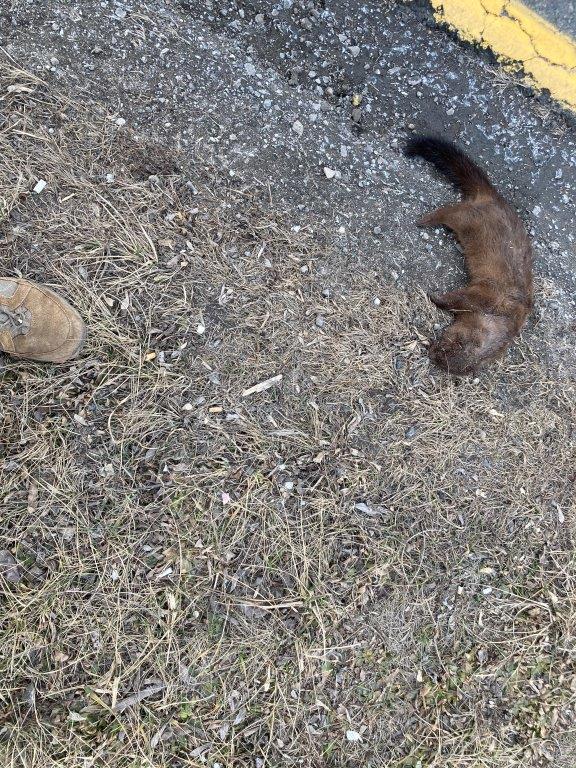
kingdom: Animalia
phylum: Chordata
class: Mammalia
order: Carnivora
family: Mustelidae
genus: Mustela
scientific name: Mustela
